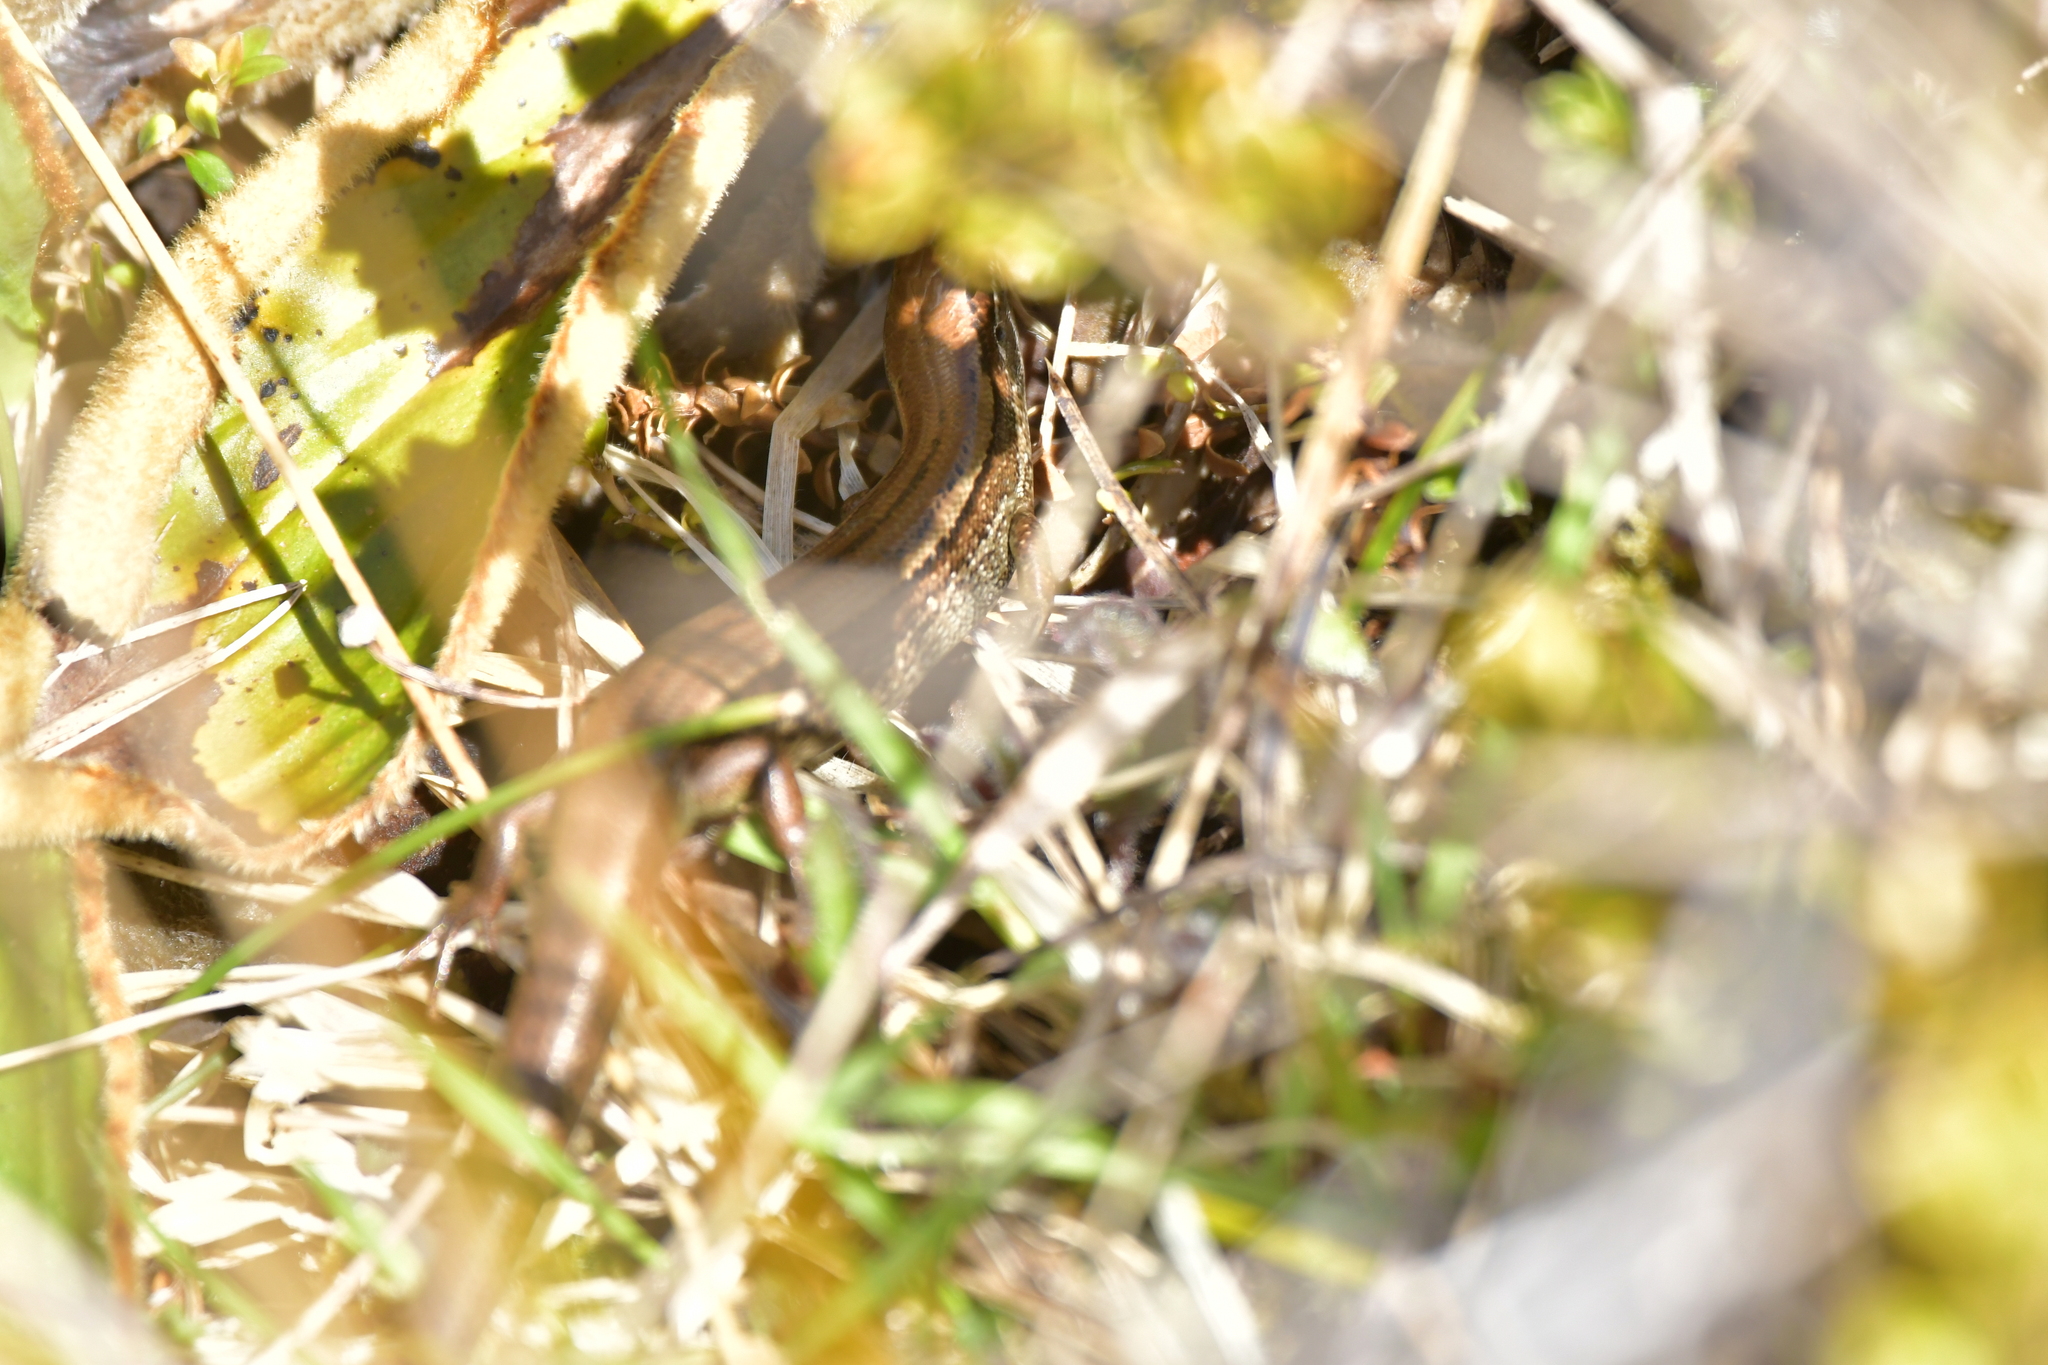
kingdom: Animalia
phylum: Chordata
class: Squamata
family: Scincidae
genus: Oligosoma
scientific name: Oligosoma newmani
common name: Newman’s speckled skink
